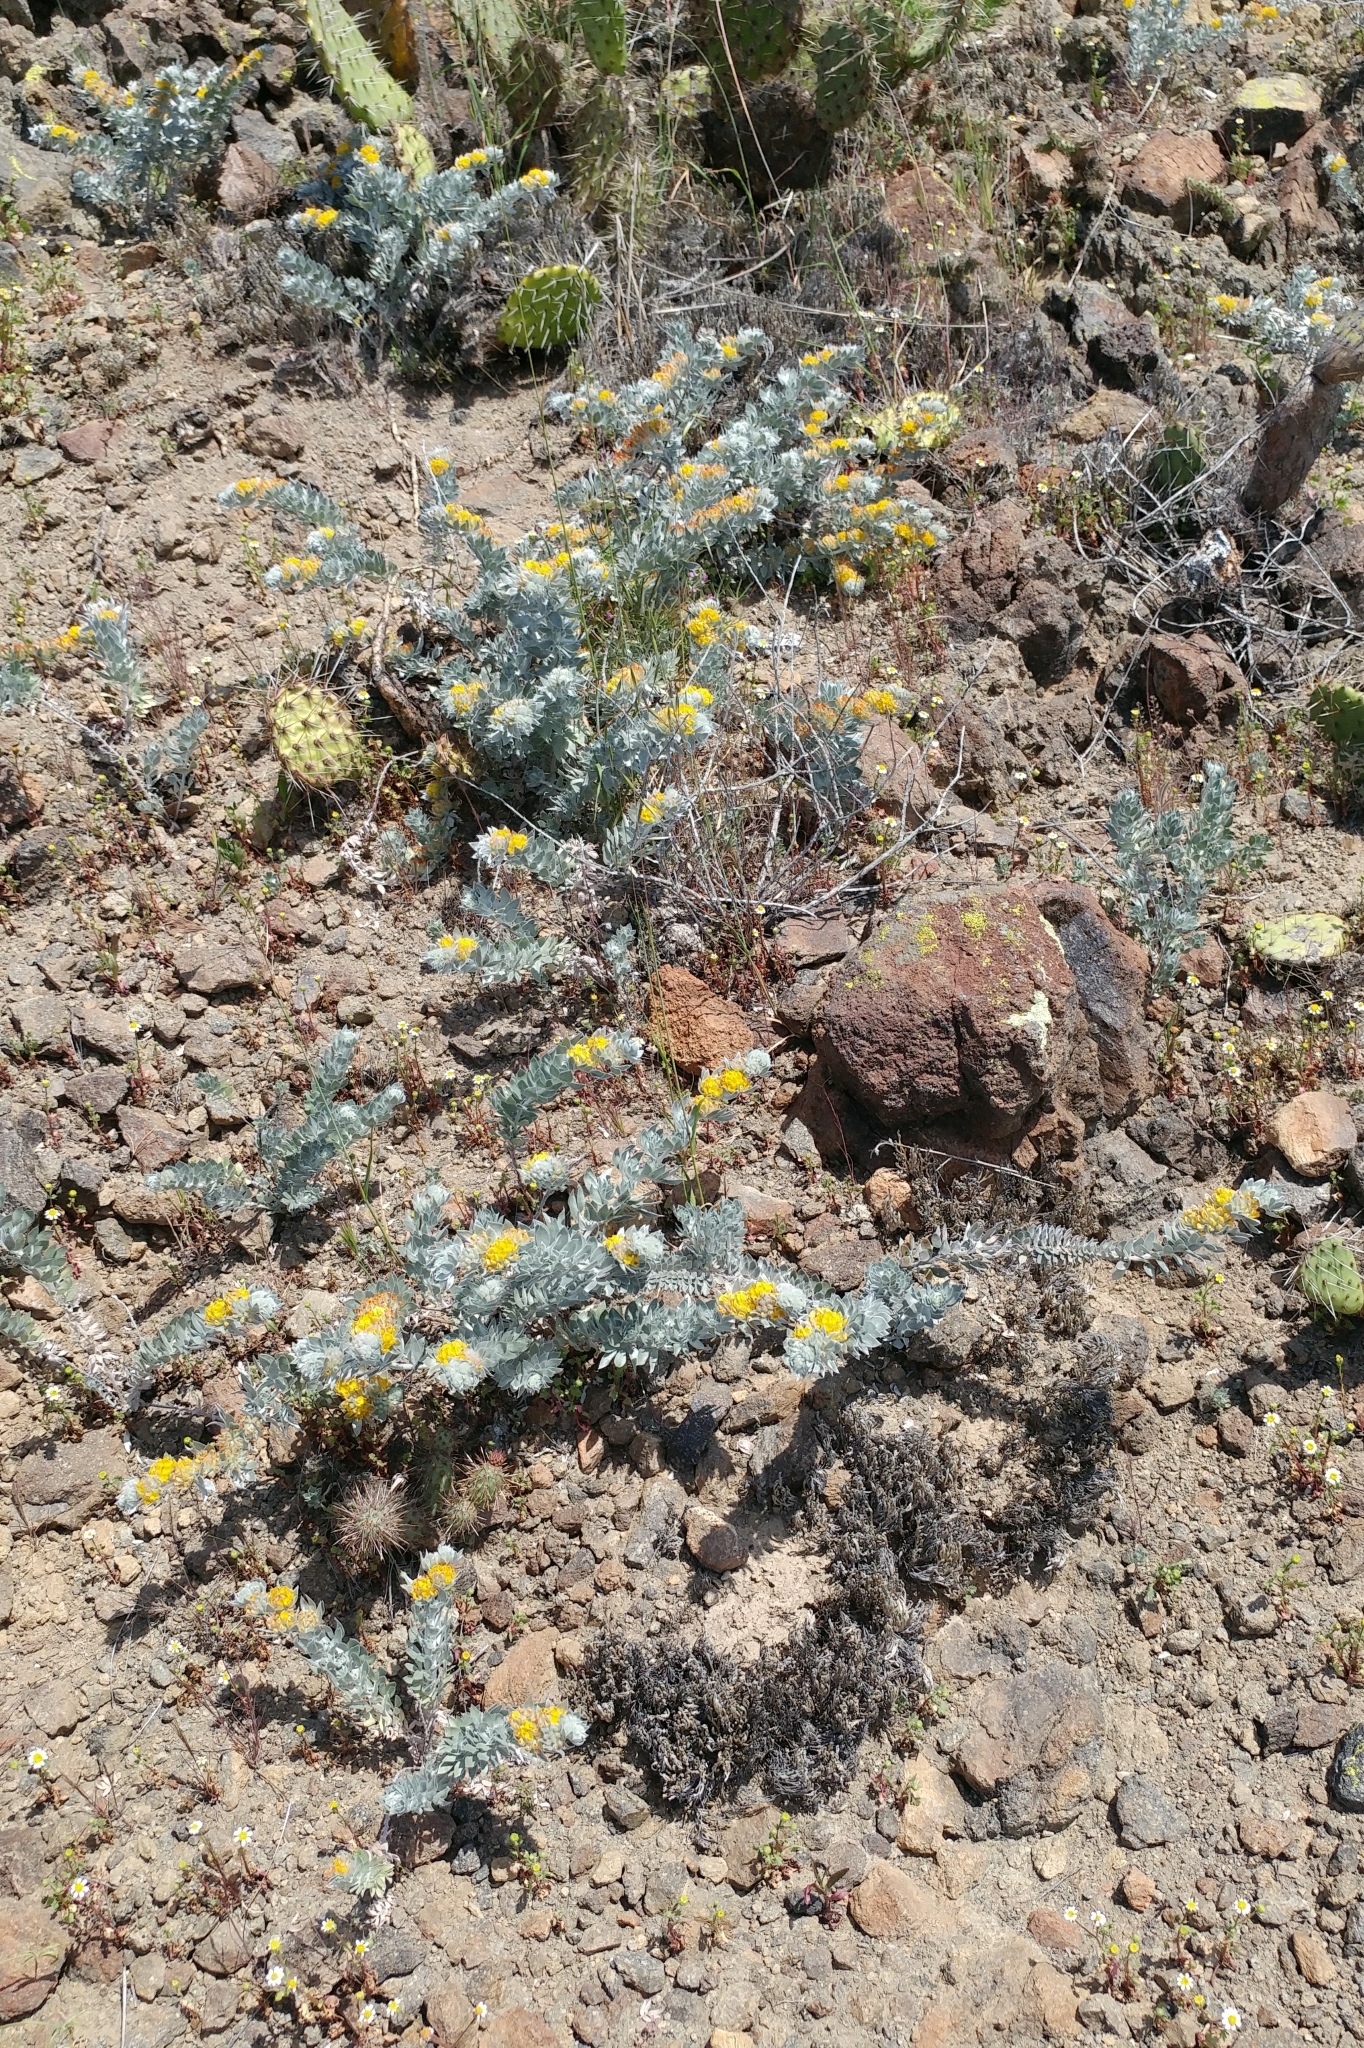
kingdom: Plantae
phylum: Tracheophyta
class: Magnoliopsida
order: Fabales
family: Fabaceae
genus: Acmispon
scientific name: Acmispon argophyllus
